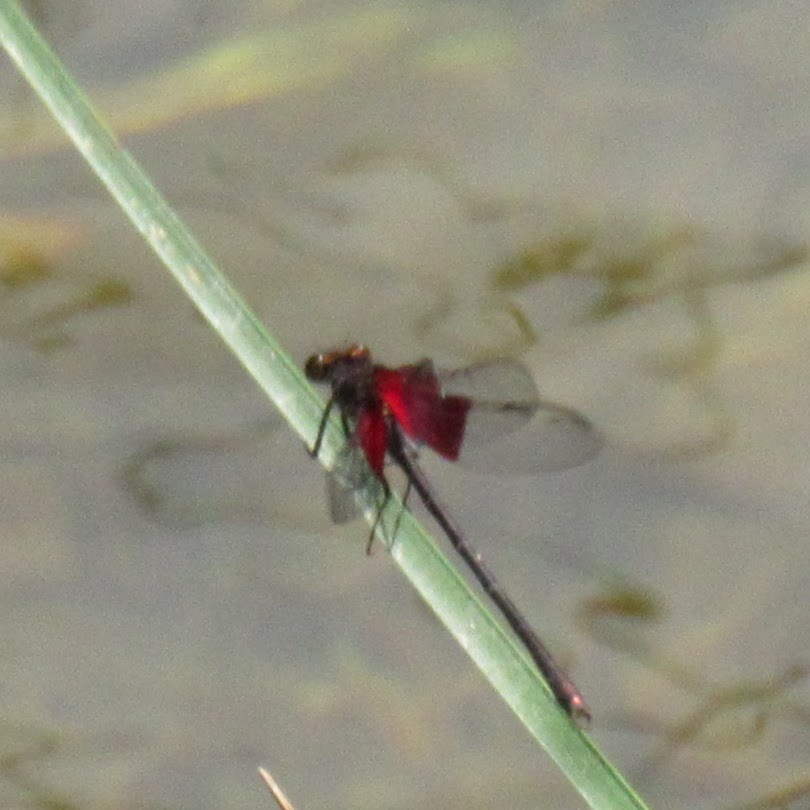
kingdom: Animalia
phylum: Arthropoda
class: Insecta
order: Odonata
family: Calopterygidae
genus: Hetaerina
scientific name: Hetaerina americana
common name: American rubyspot
